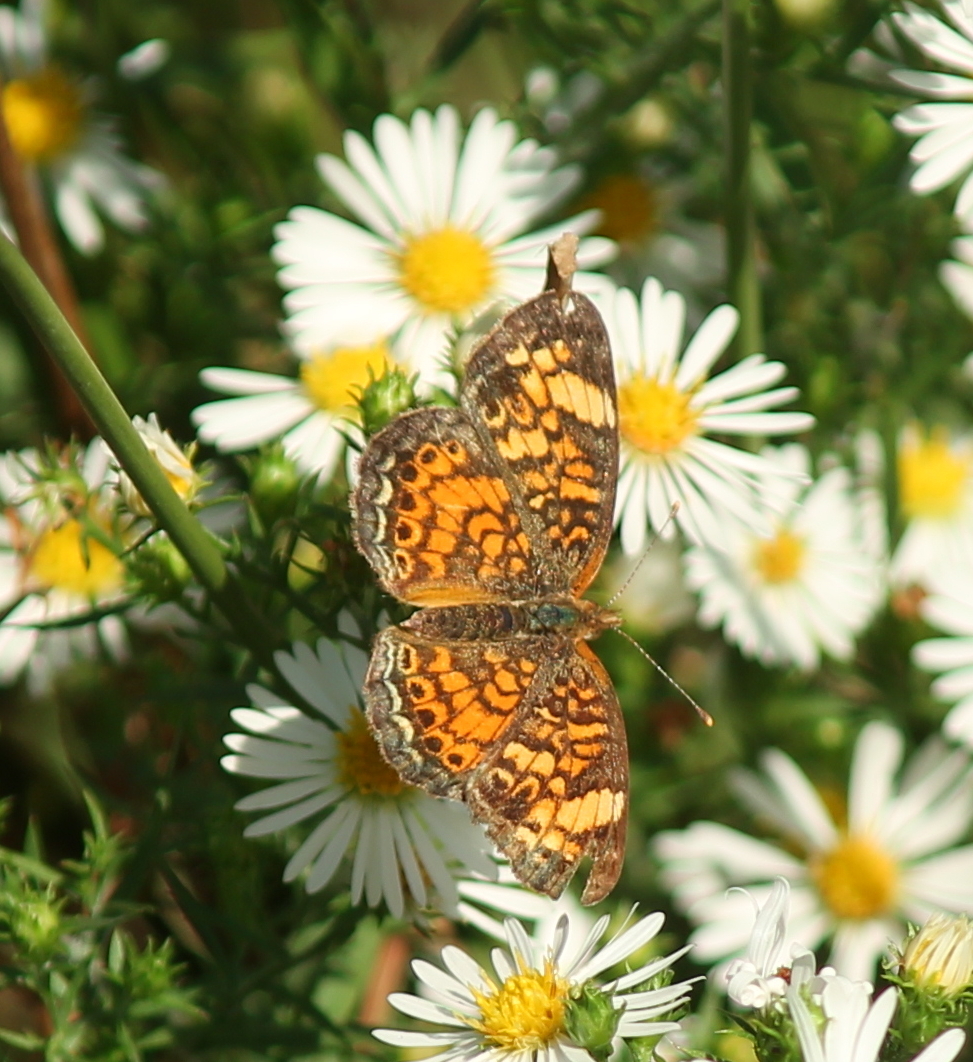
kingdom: Animalia
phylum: Arthropoda
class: Insecta
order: Lepidoptera
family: Nymphalidae
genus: Phyciodes
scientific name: Phyciodes phaon
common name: Phaon crescent
